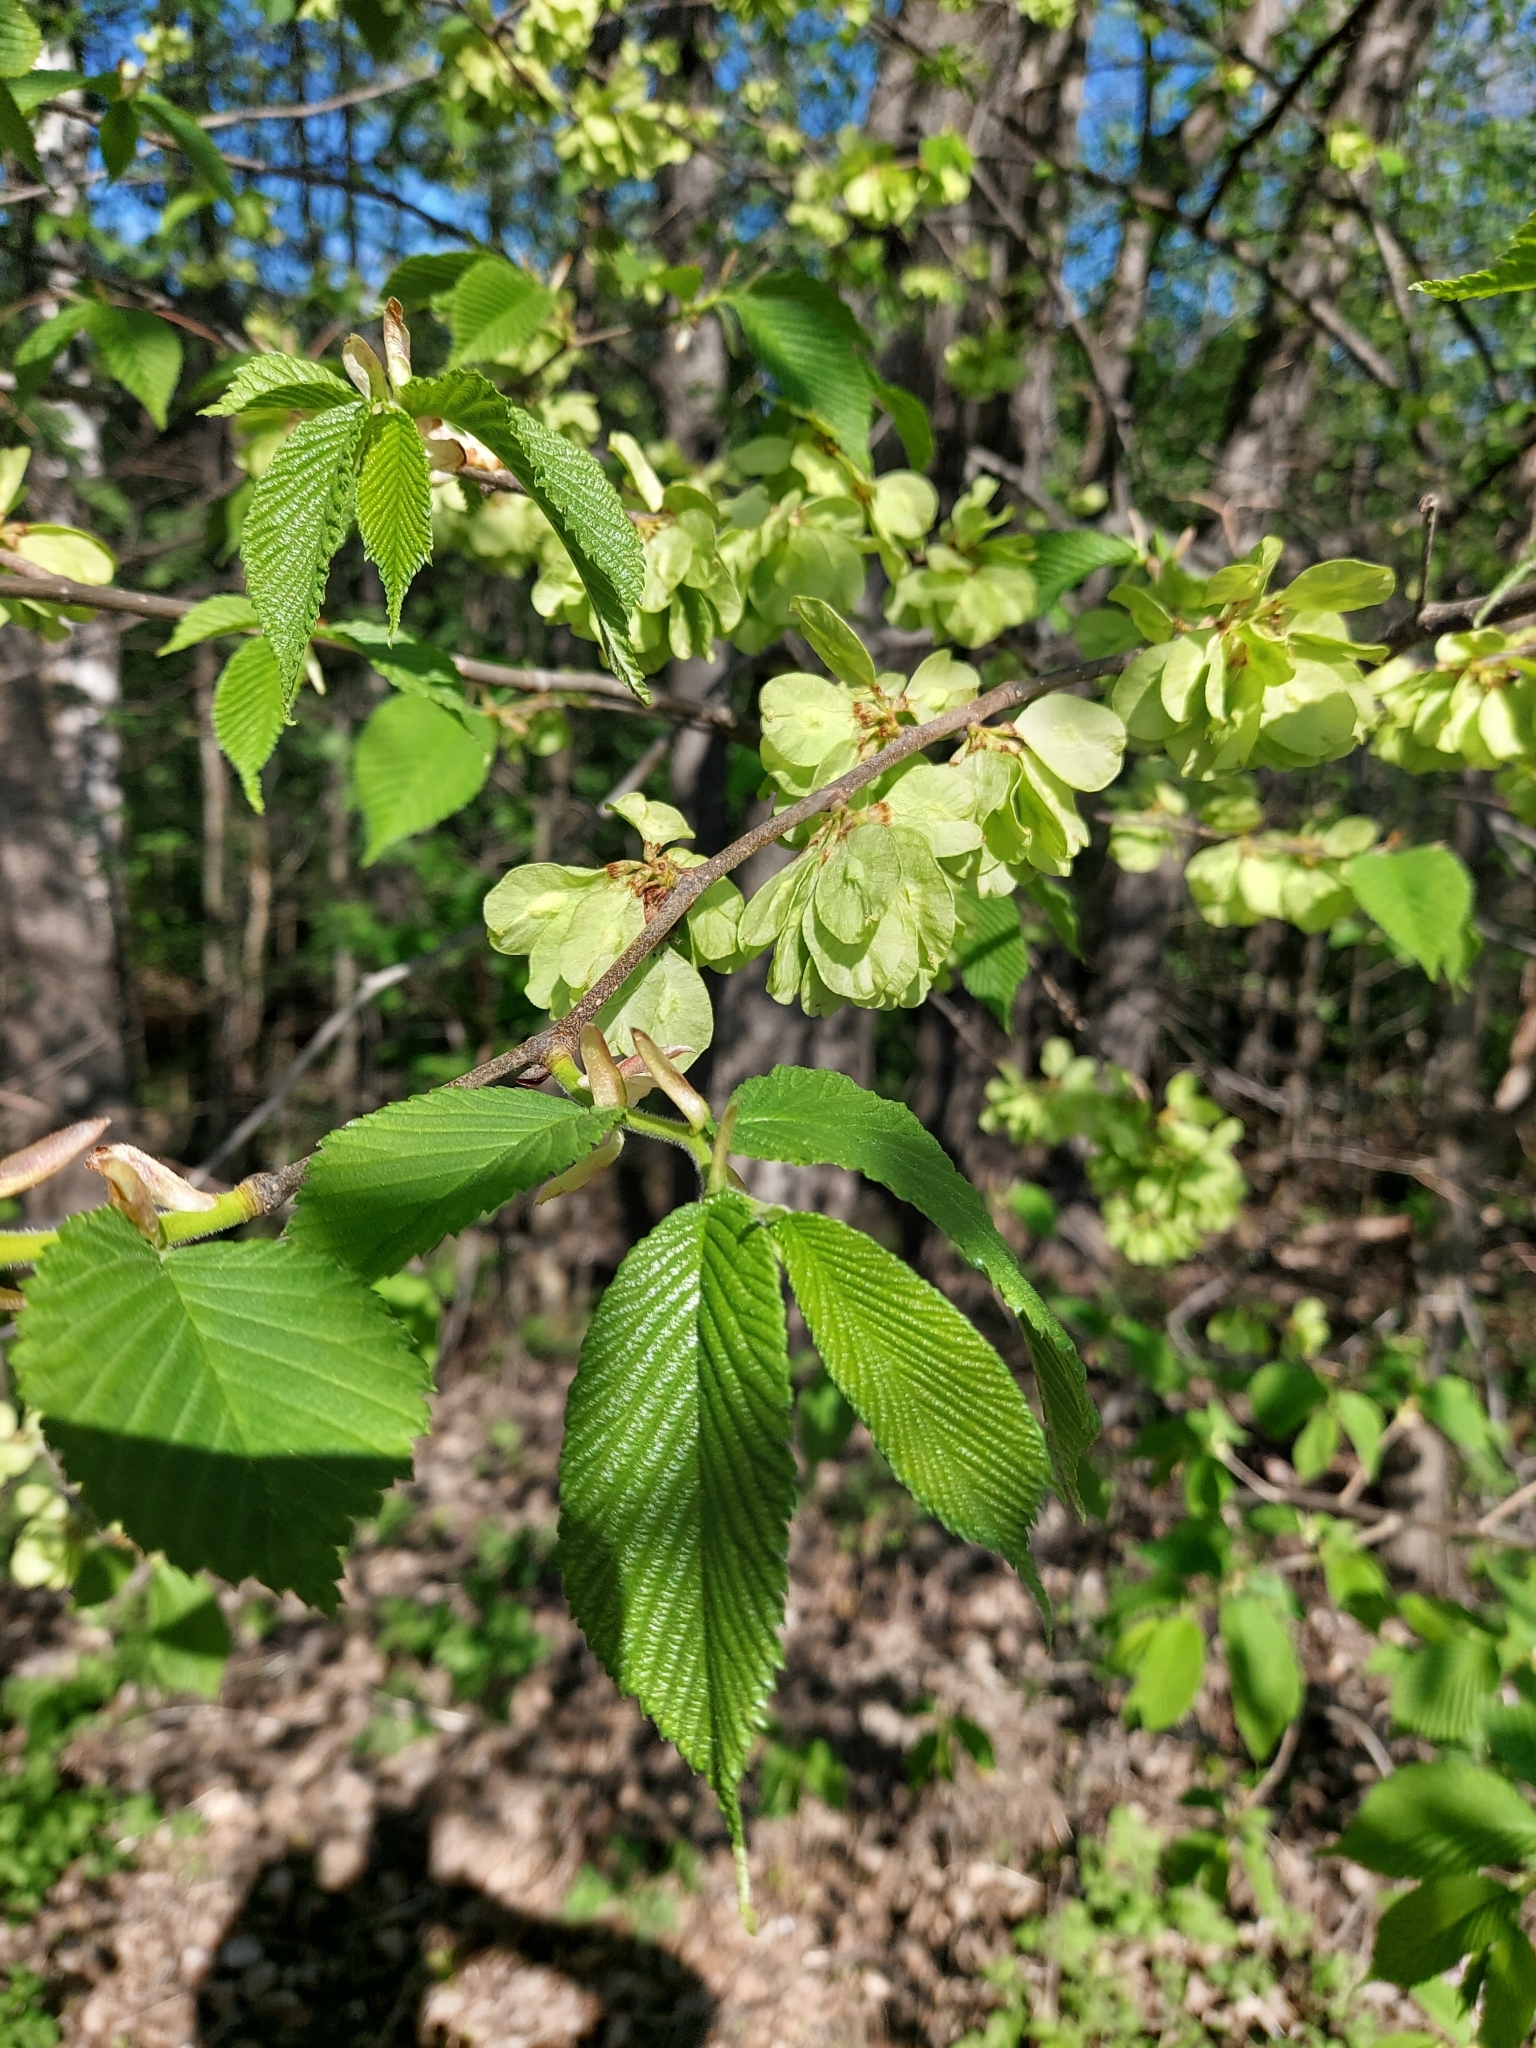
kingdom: Plantae
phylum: Tracheophyta
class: Magnoliopsida
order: Rosales
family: Ulmaceae
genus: Ulmus
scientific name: Ulmus glabra
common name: Wych elm
